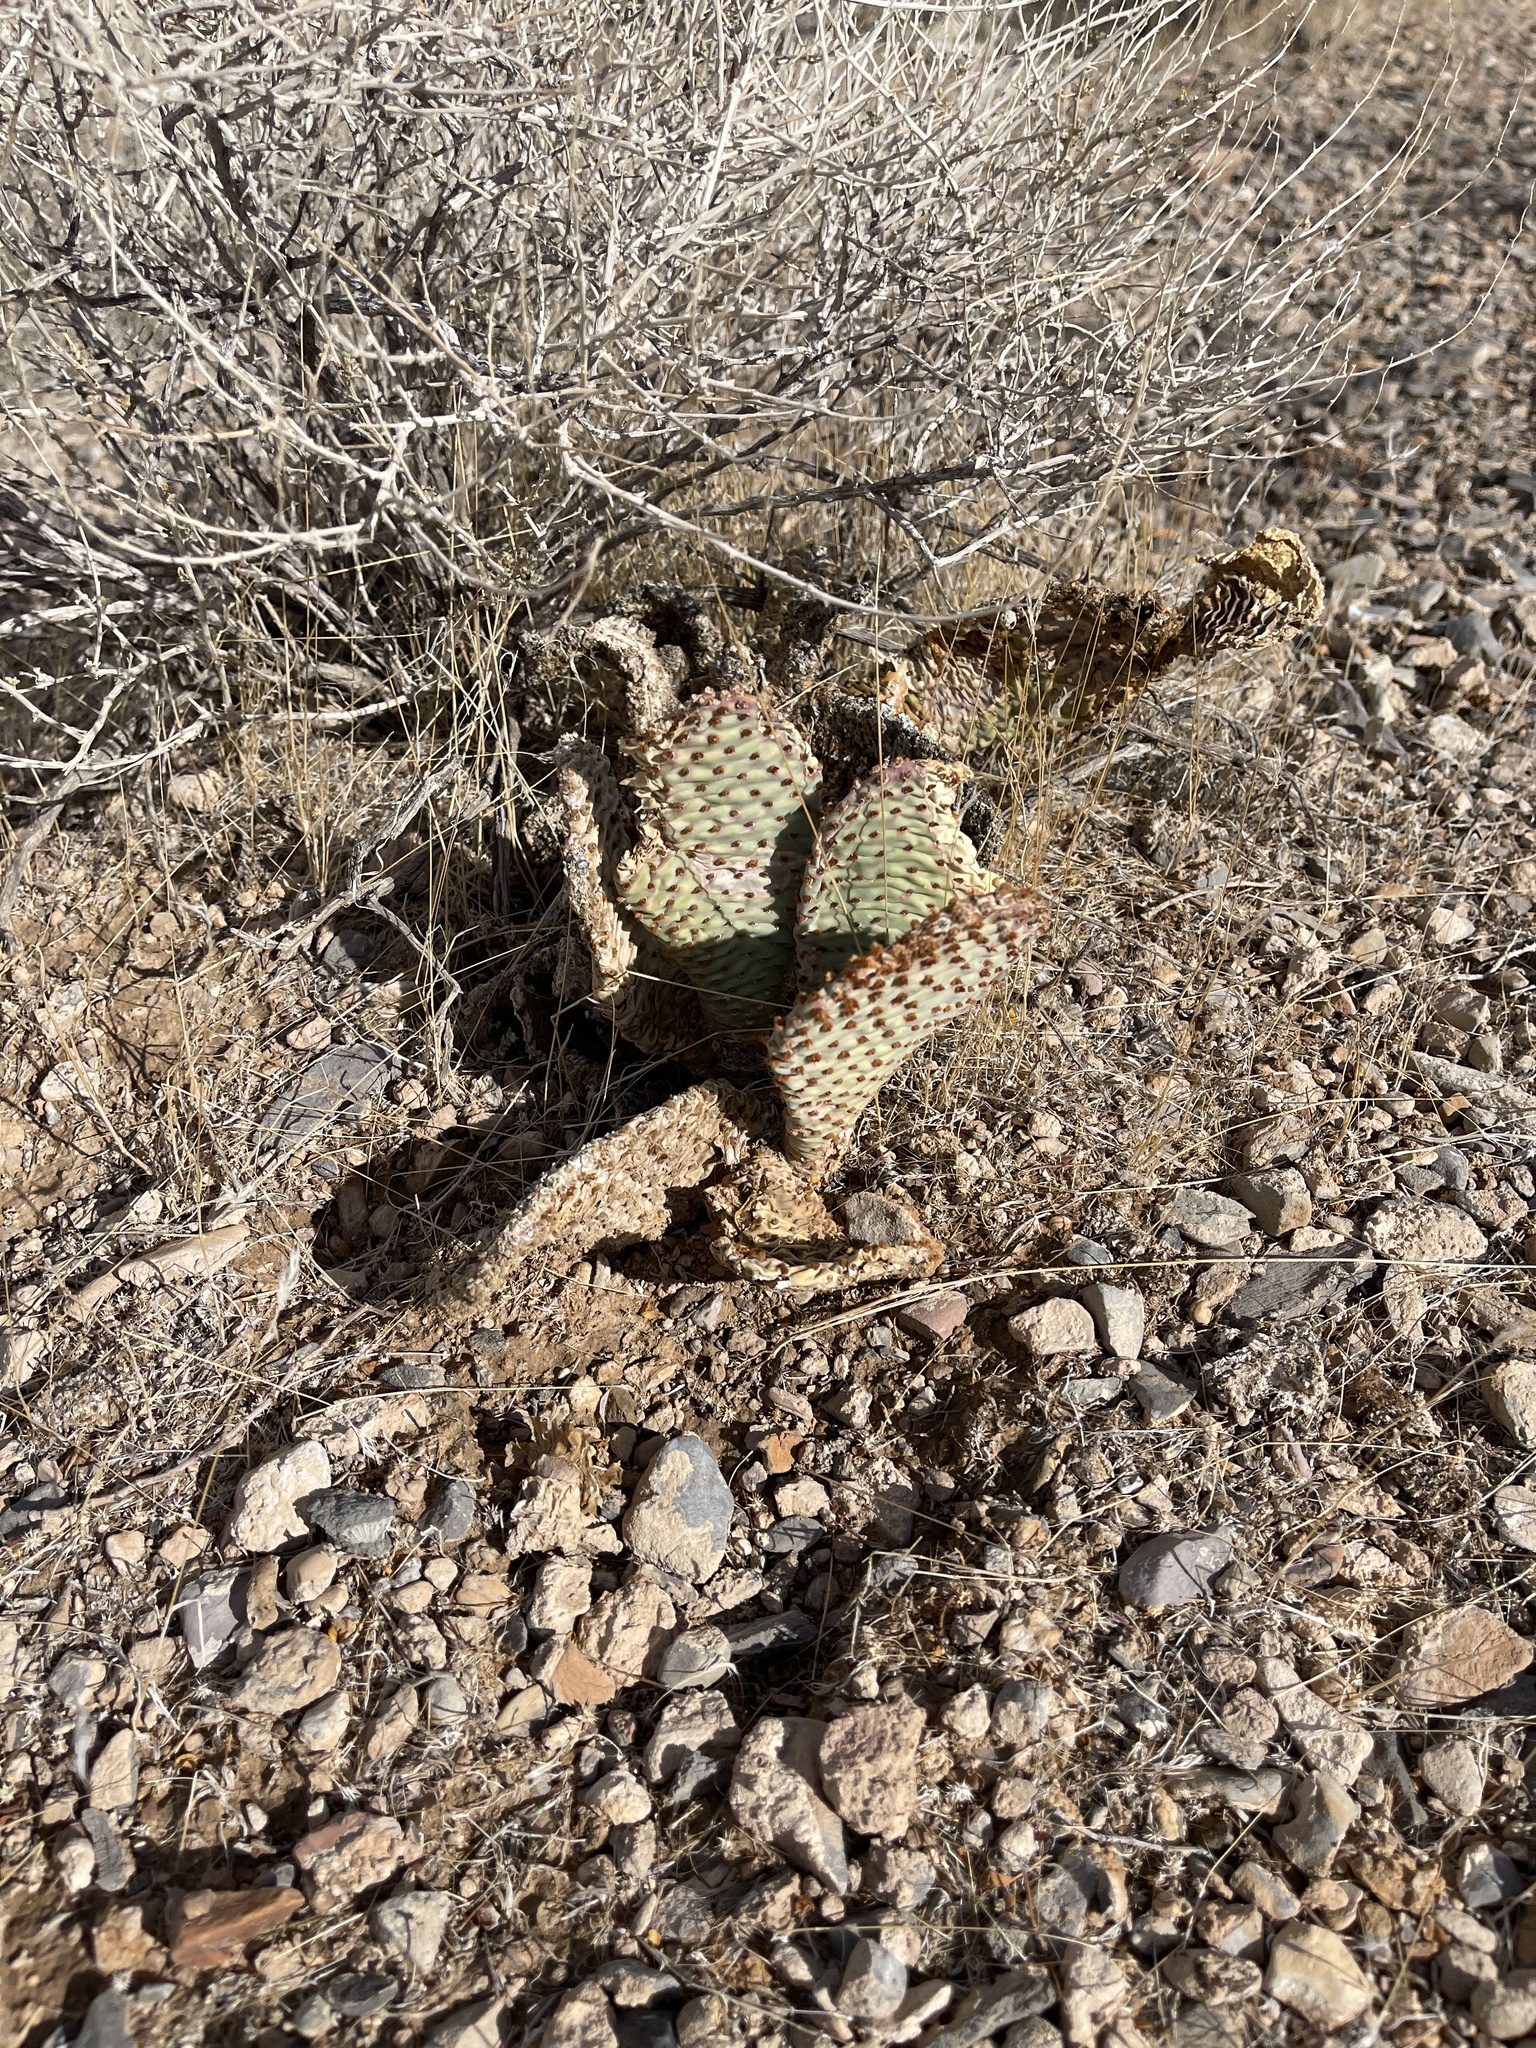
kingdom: Plantae
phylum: Tracheophyta
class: Magnoliopsida
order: Caryophyllales
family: Cactaceae
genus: Opuntia
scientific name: Opuntia basilaris
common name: Beavertail prickly-pear
